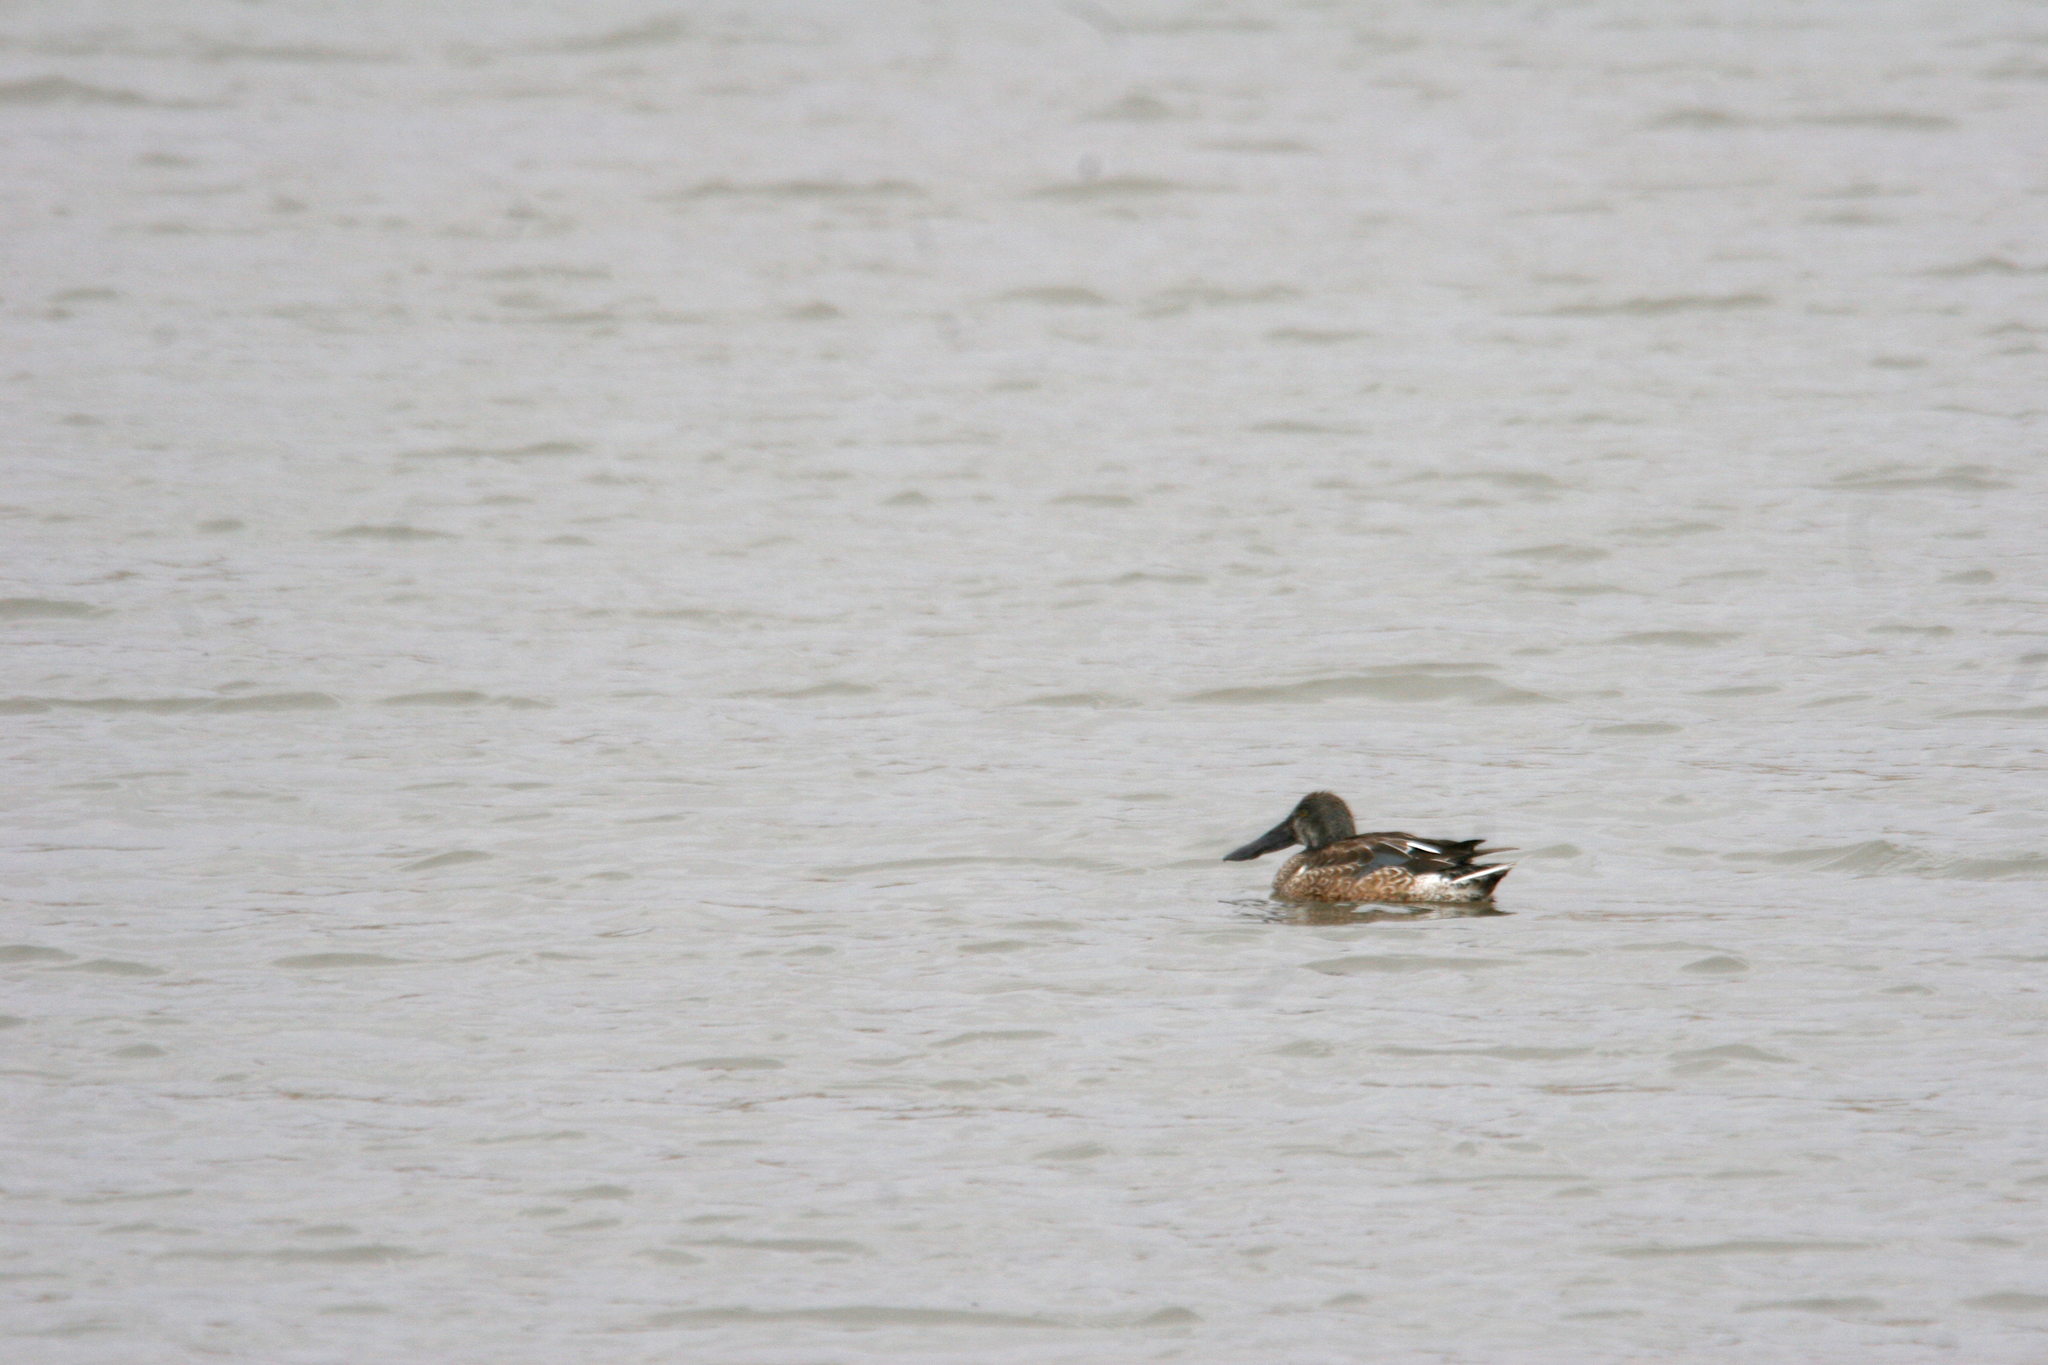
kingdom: Animalia
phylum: Chordata
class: Aves
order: Anseriformes
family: Anatidae
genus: Spatula
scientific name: Spatula clypeata
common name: Northern shoveler
